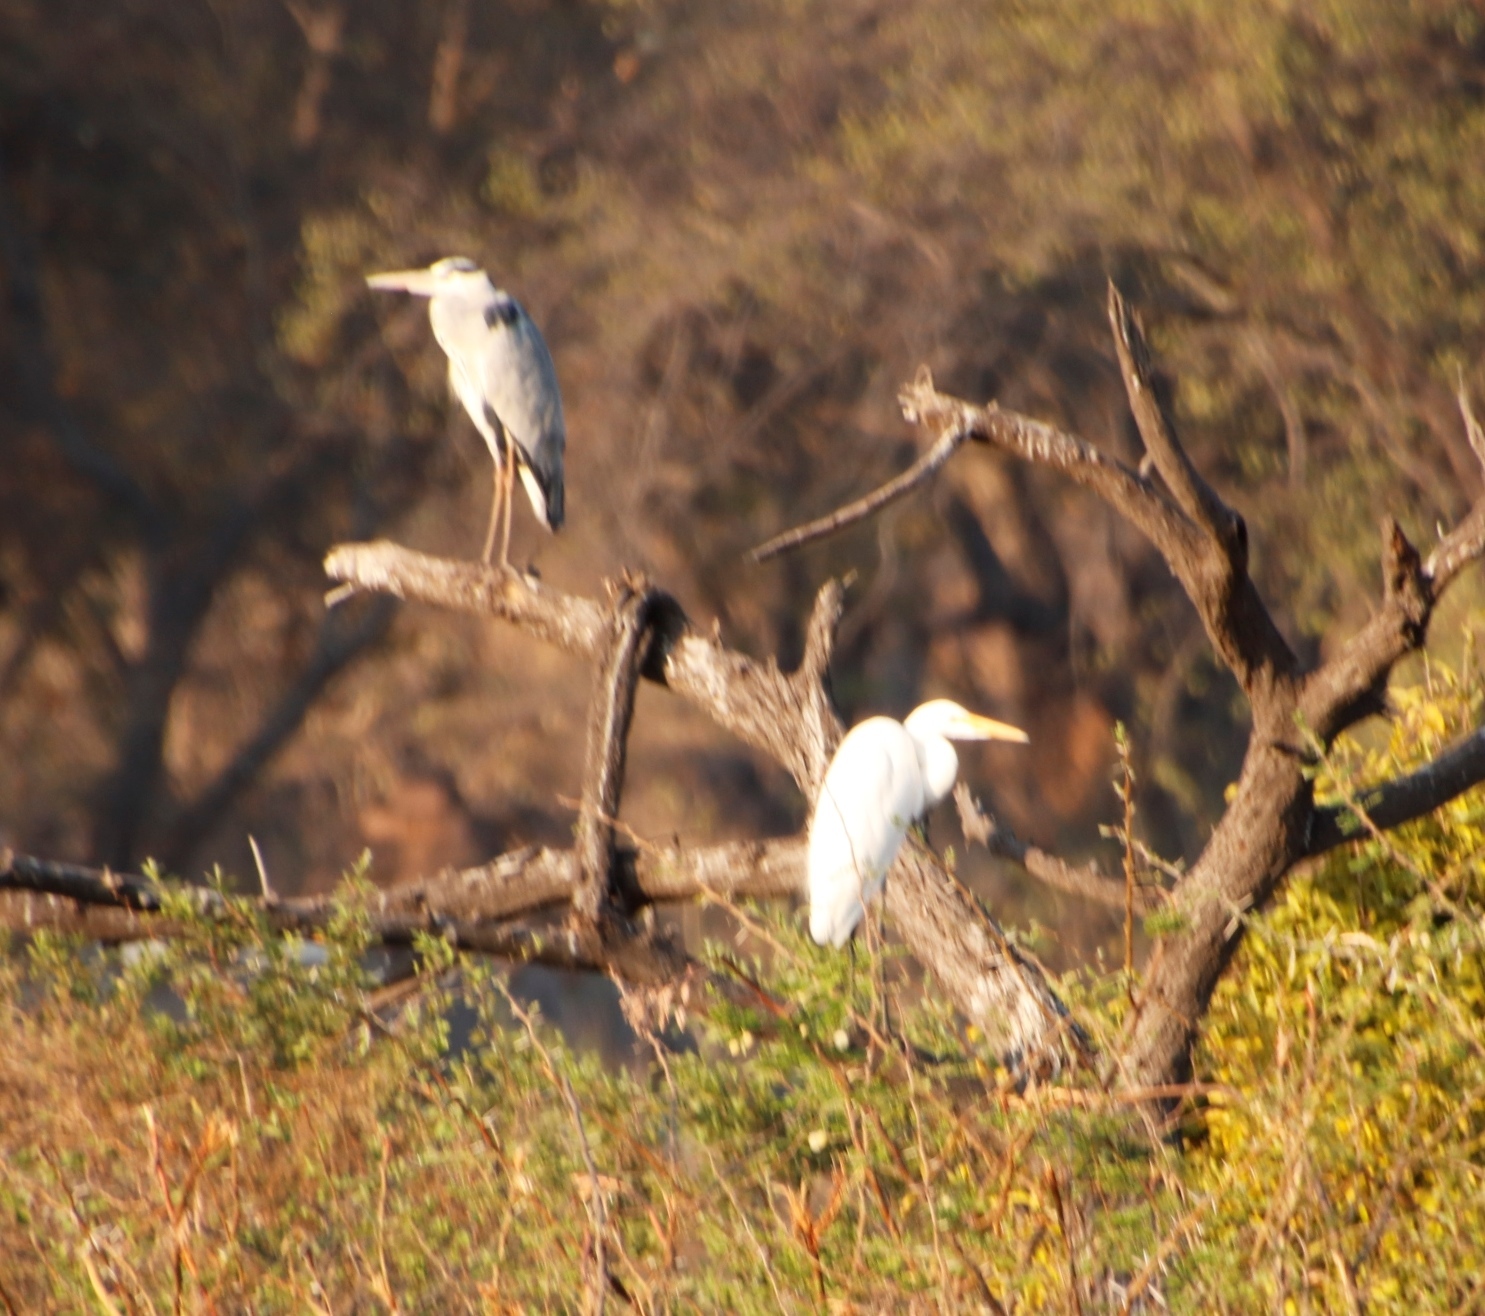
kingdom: Animalia
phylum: Chordata
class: Aves
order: Pelecaniformes
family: Ardeidae
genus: Ardea
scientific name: Ardea alba
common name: Great egret
